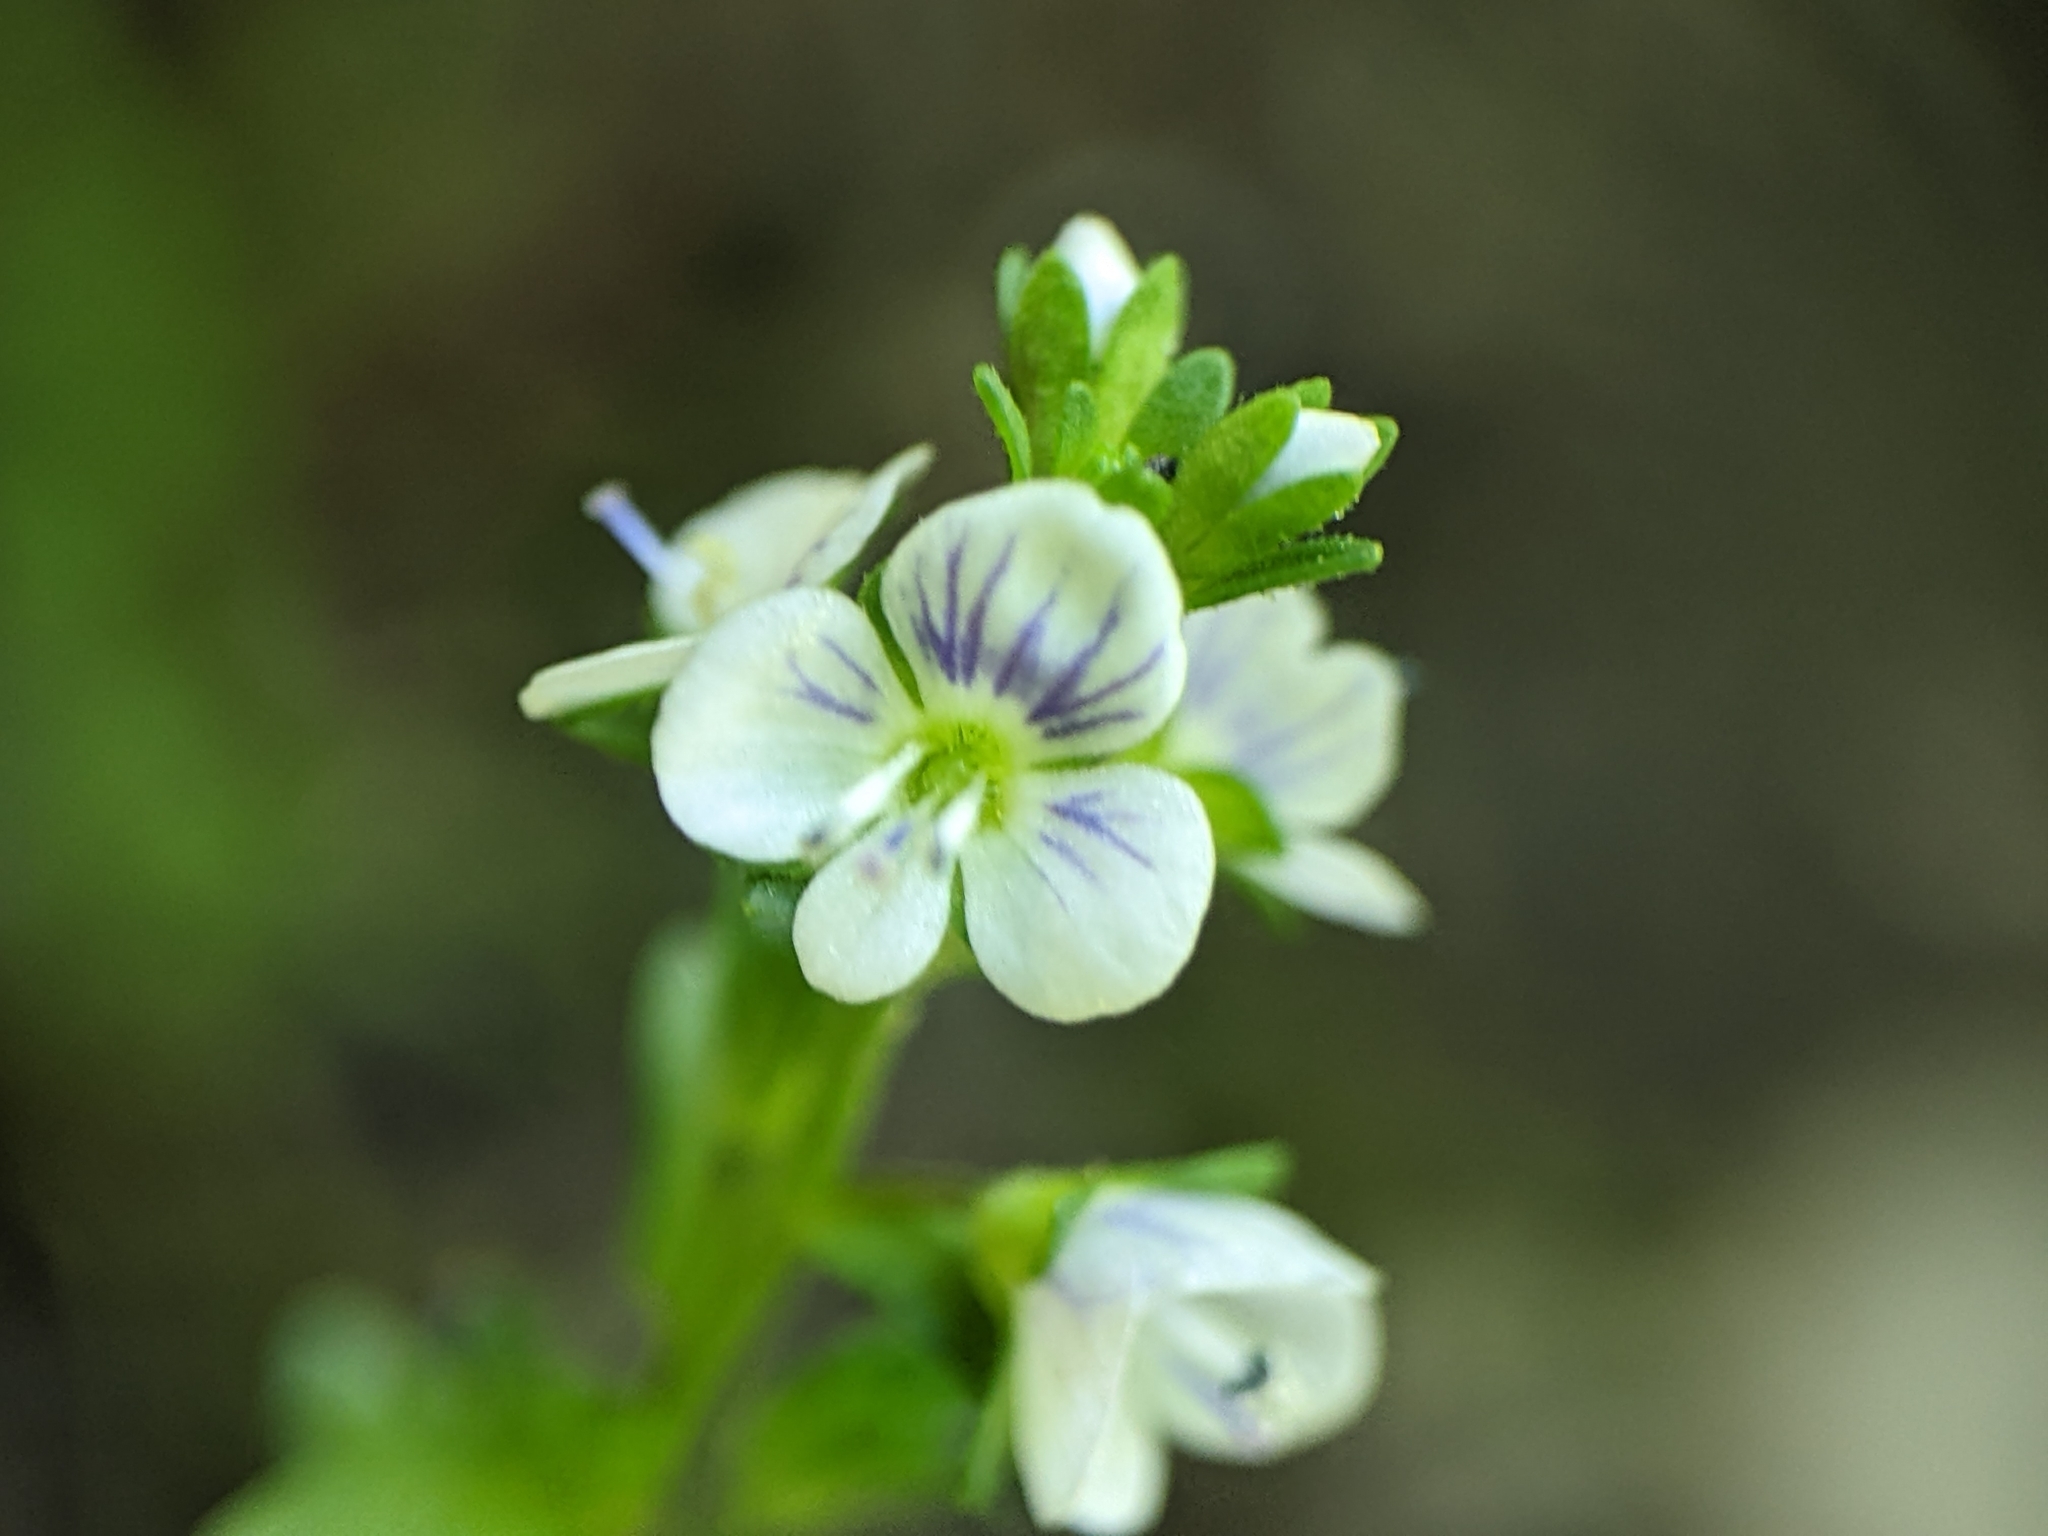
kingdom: Plantae
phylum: Tracheophyta
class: Magnoliopsida
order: Lamiales
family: Plantaginaceae
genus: Veronica
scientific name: Veronica serpyllifolia
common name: Thyme-leaved speedwell
